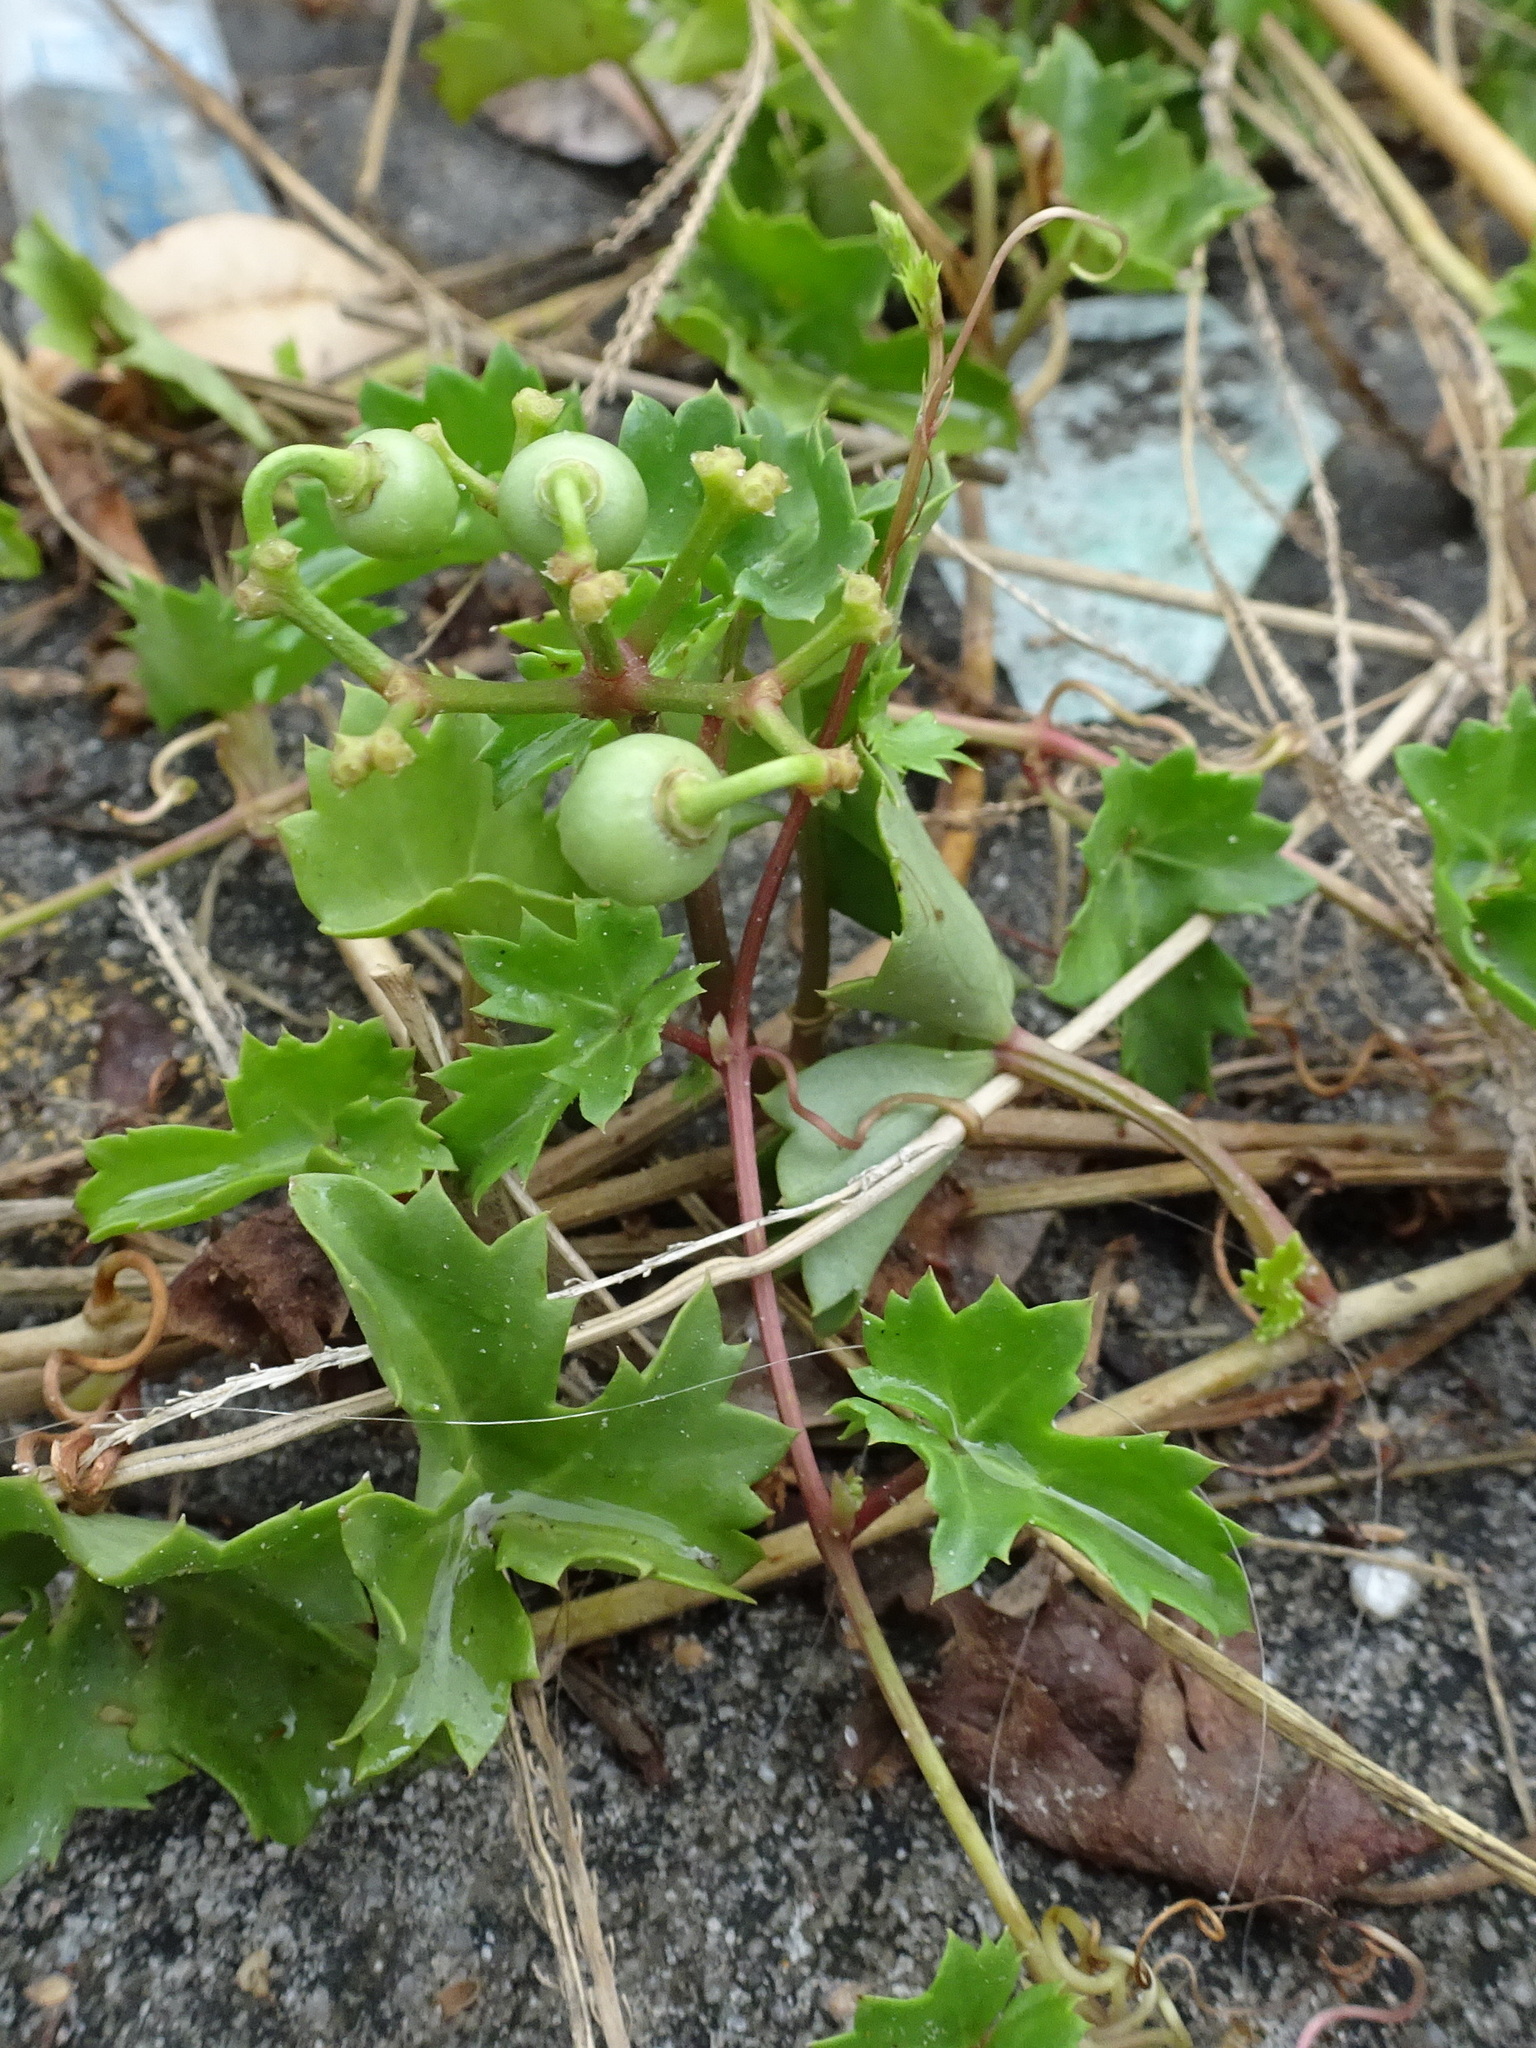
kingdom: Plantae
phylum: Tracheophyta
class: Magnoliopsida
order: Vitales
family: Vitaceae
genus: Cissus
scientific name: Cissus trifoliata
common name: Vine-sorrel
